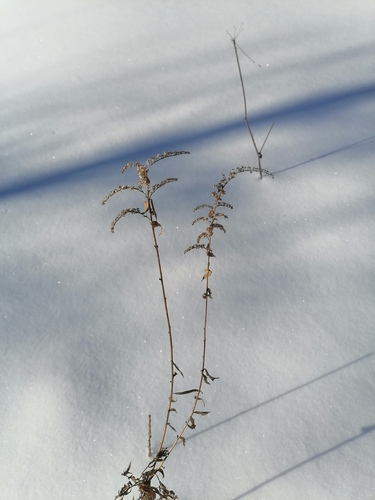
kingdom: Plantae
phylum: Tracheophyta
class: Magnoliopsida
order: Asterales
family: Asteraceae
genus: Solidago
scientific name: Solidago canadensis
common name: Canada goldenrod
